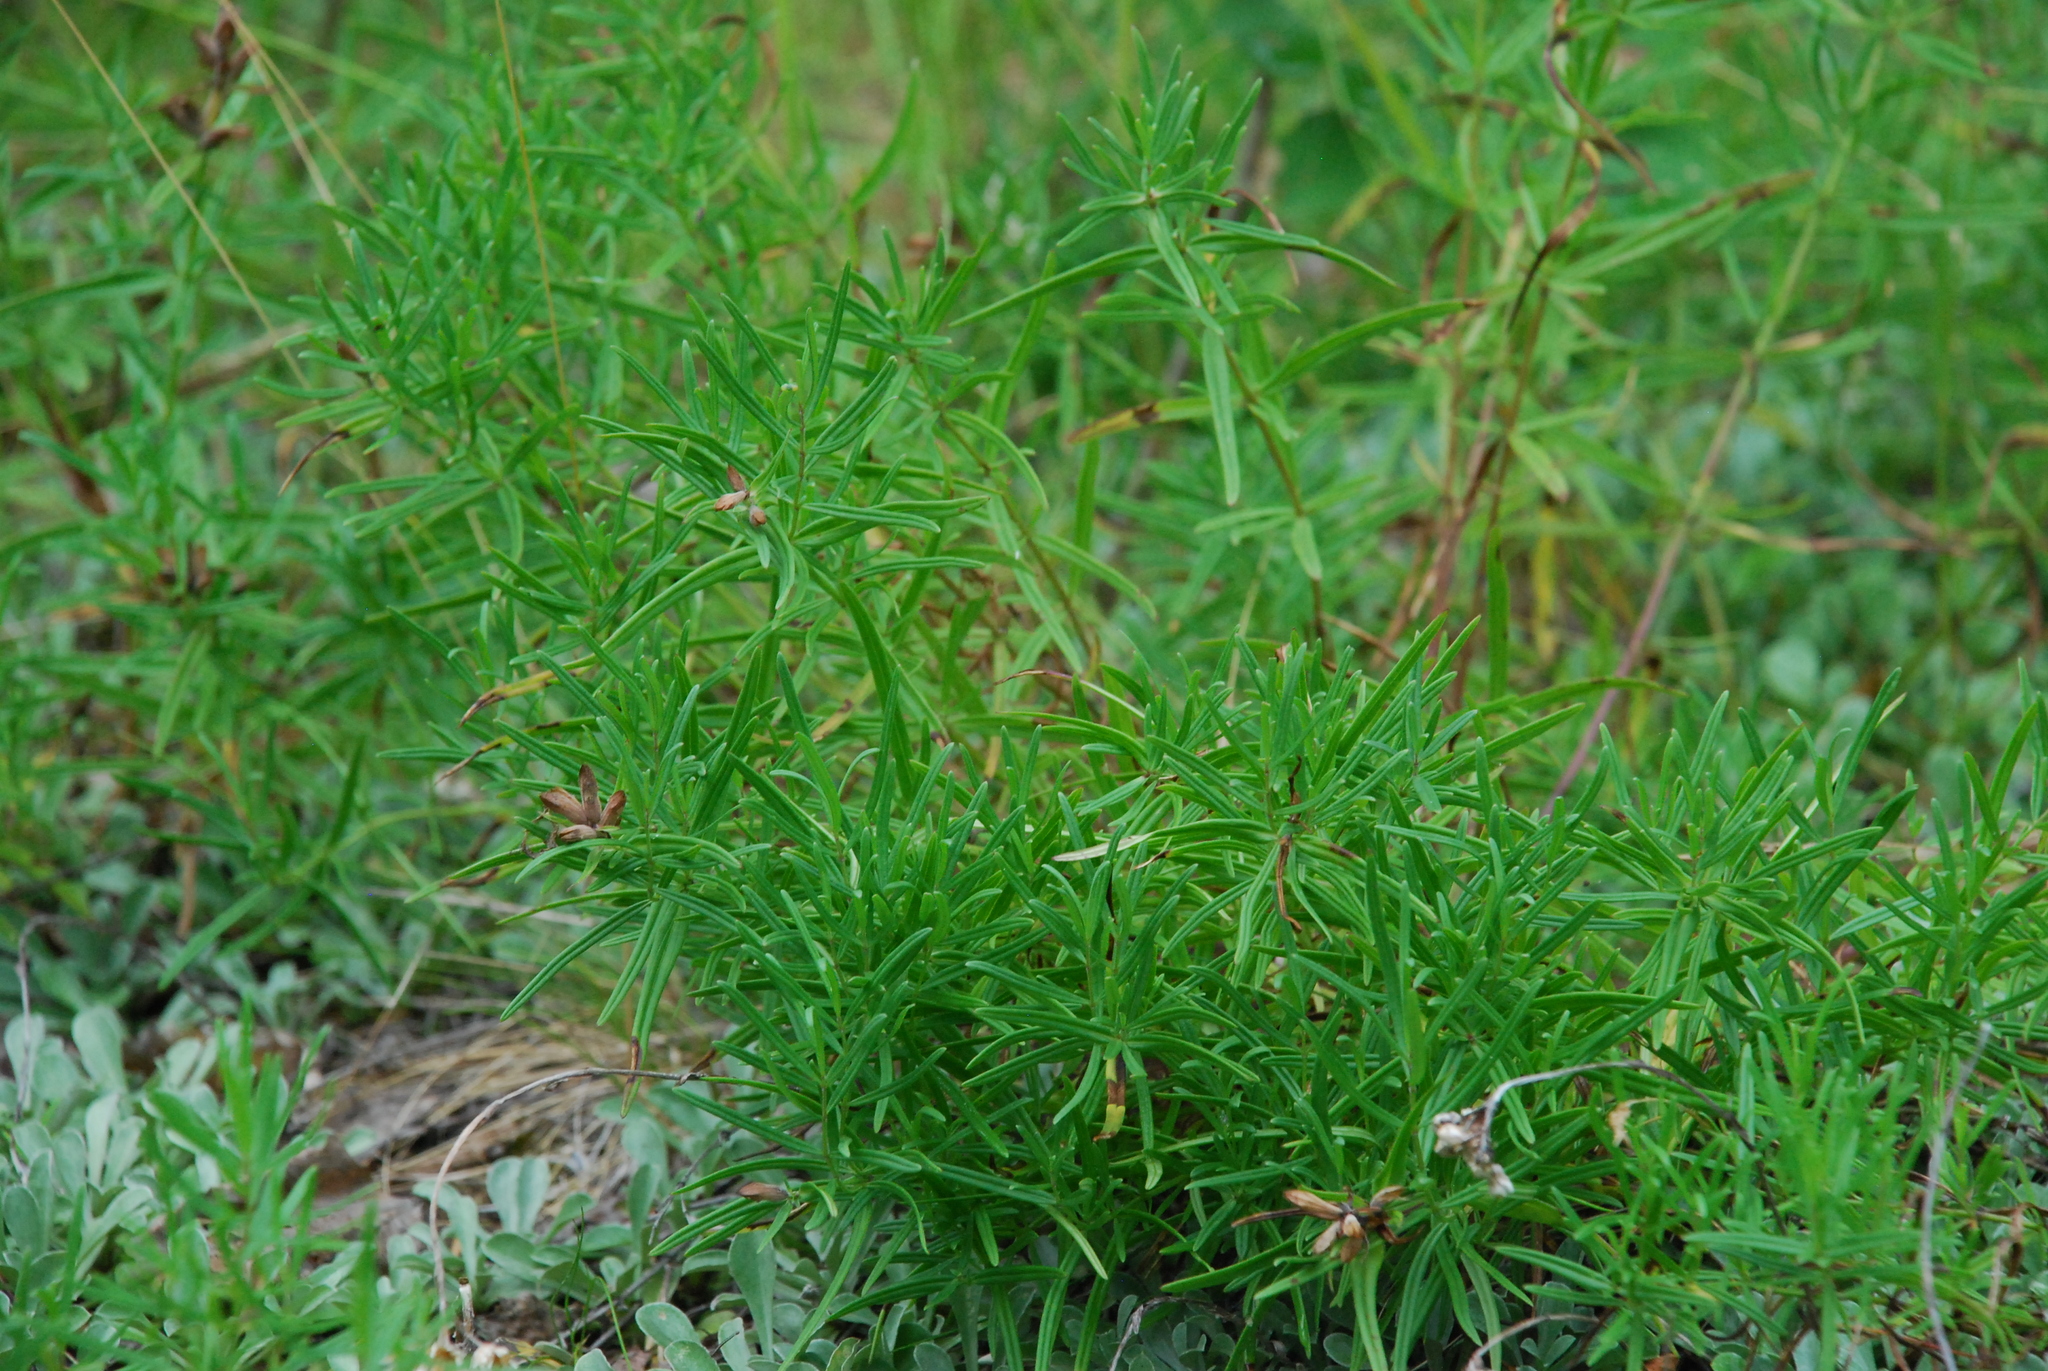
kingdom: Plantae
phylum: Tracheophyta
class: Magnoliopsida
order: Lamiales
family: Lamiaceae
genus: Dracocephalum
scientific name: Dracocephalum ruyschiana
